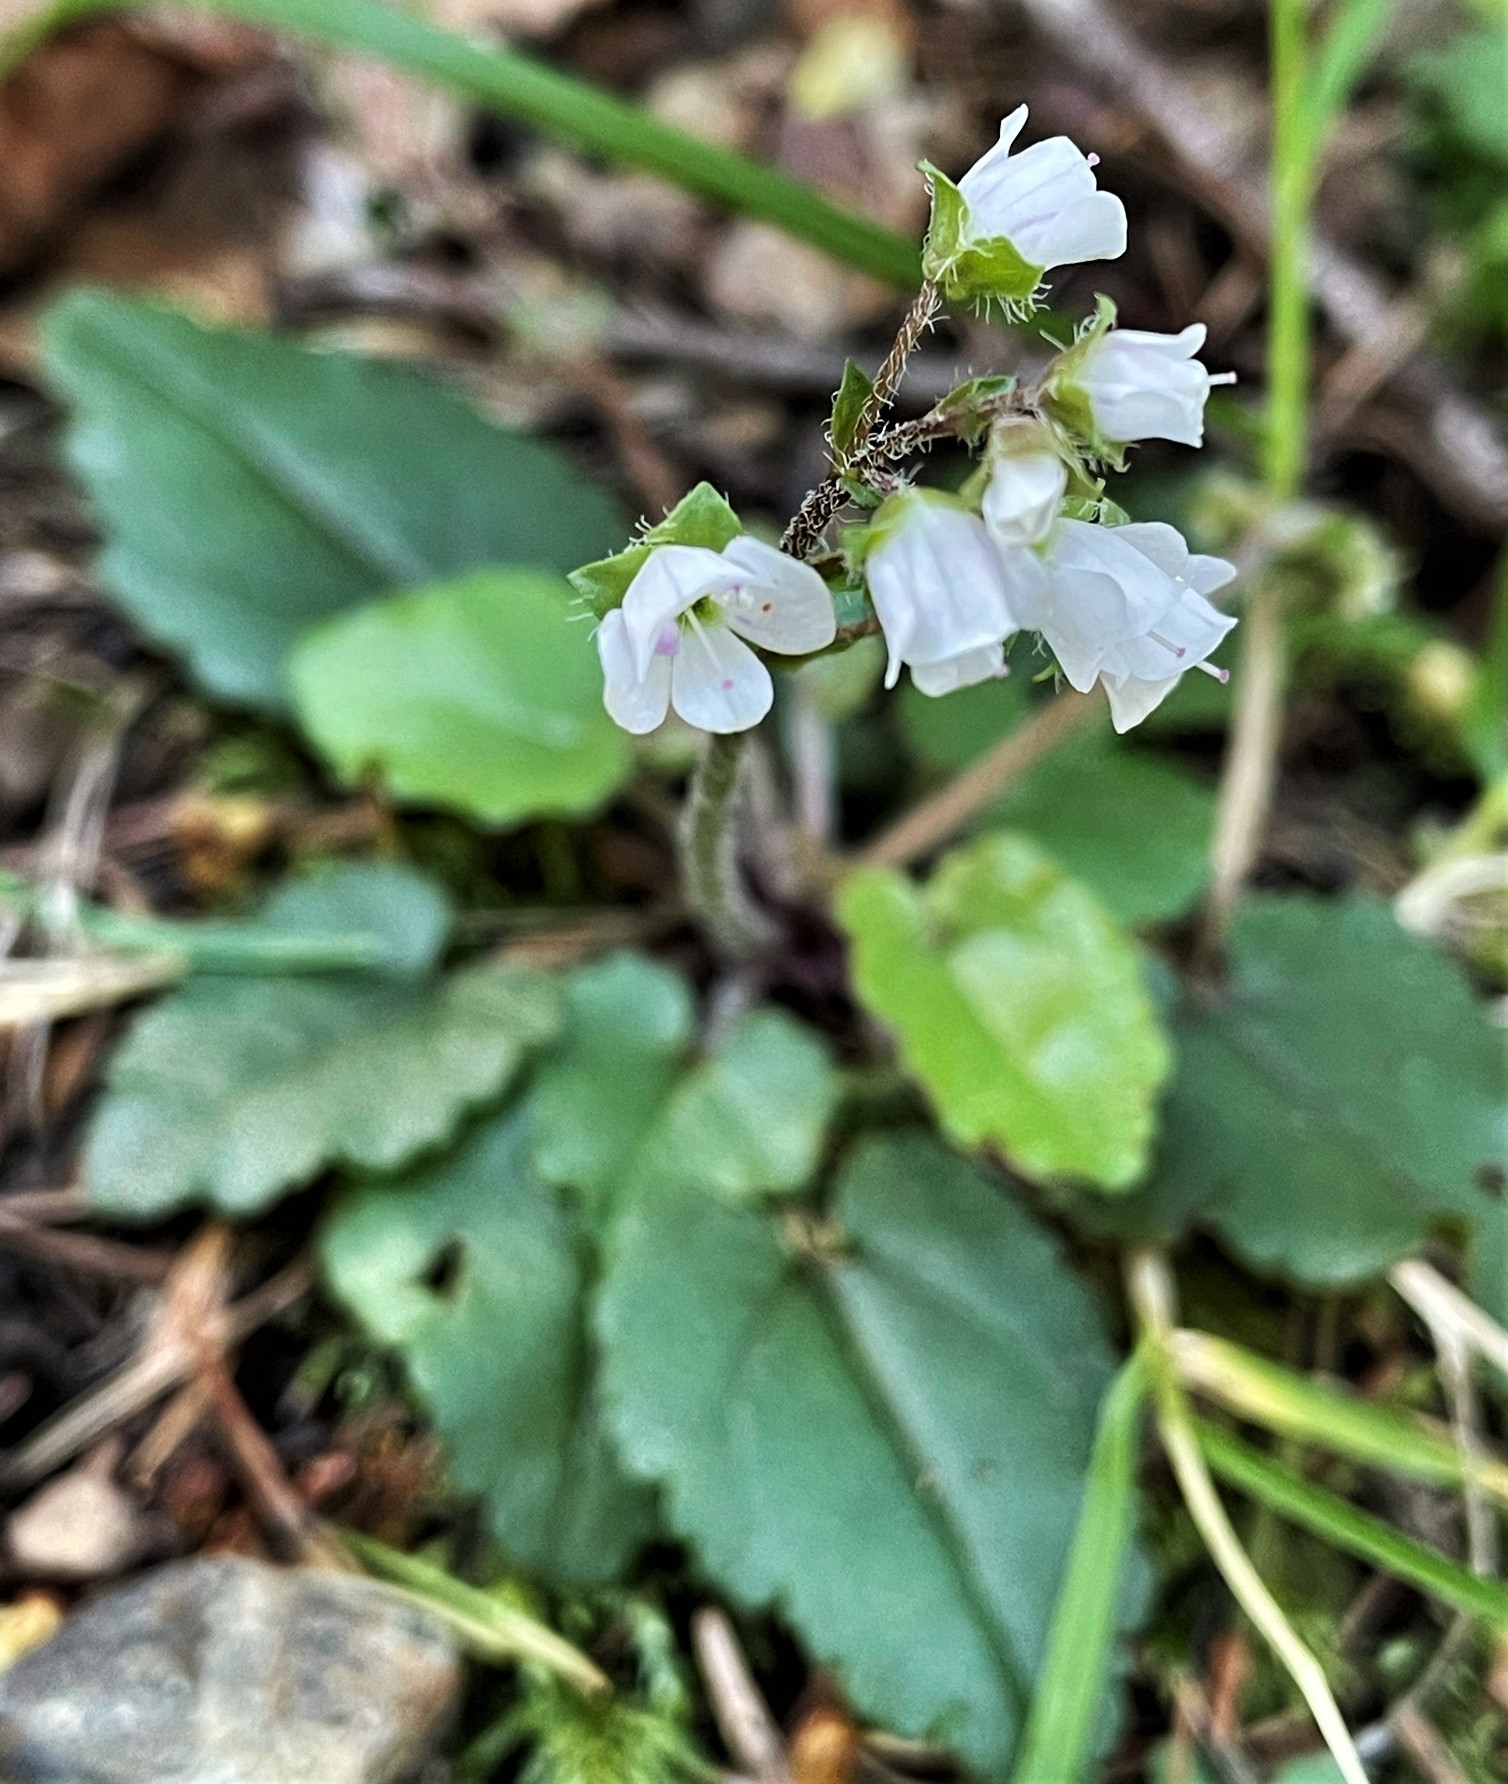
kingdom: Plantae
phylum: Tracheophyta
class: Magnoliopsida
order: Lamiales
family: Plantaginaceae
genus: Synthyris
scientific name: Synthyris cordata
